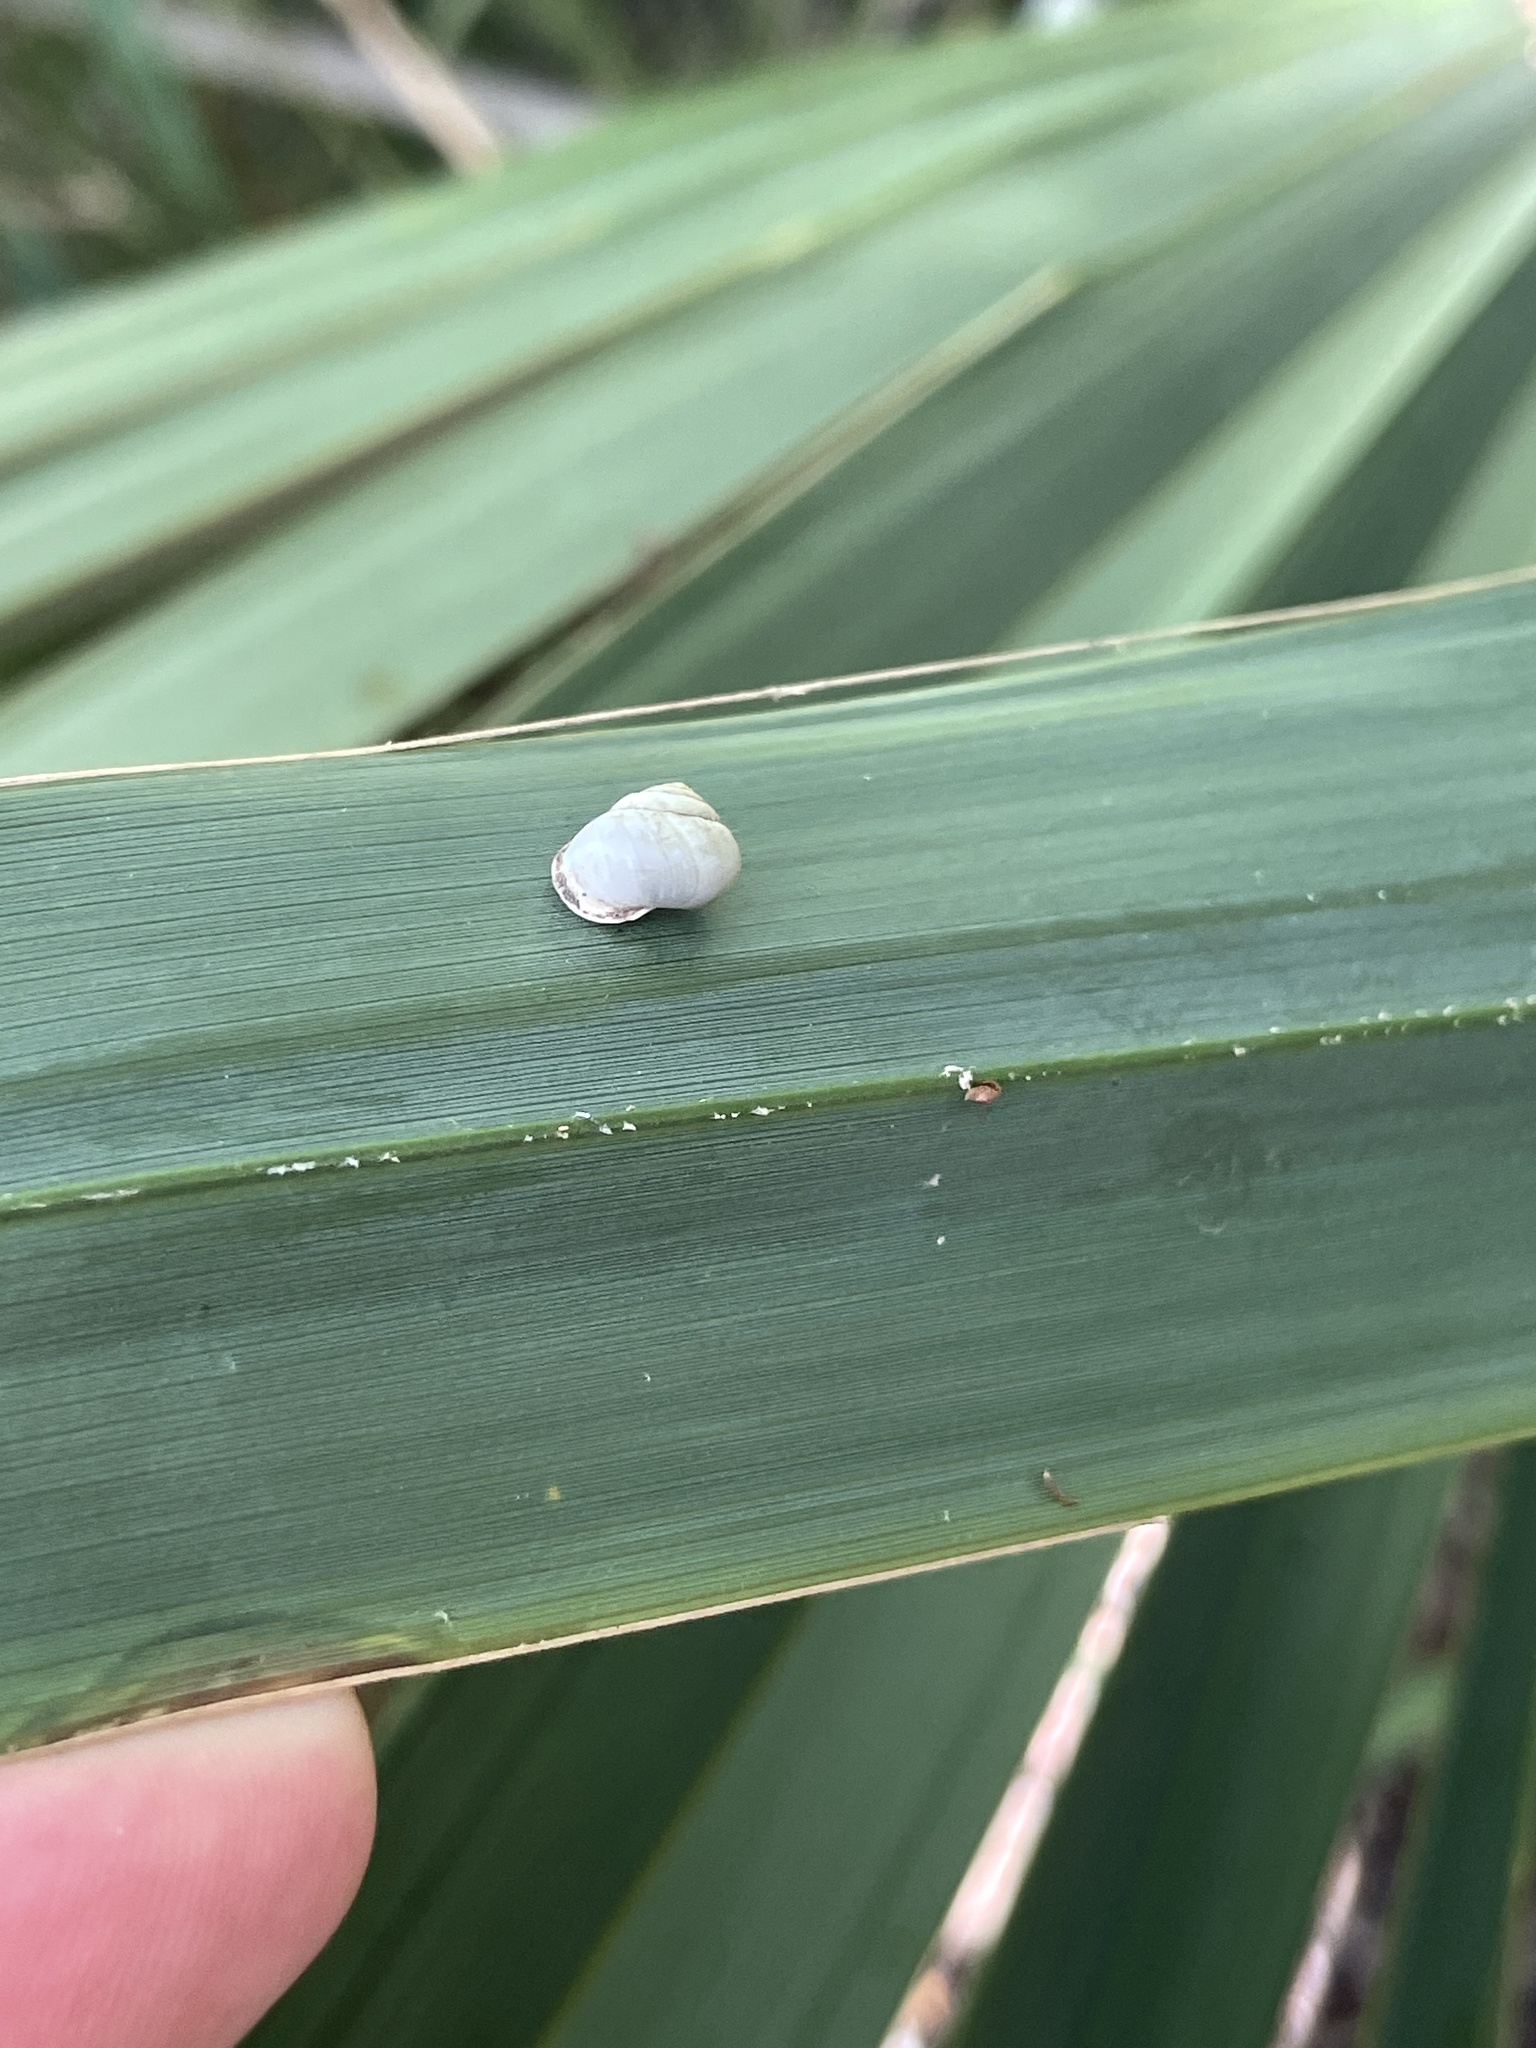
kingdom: Animalia
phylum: Mollusca
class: Gastropoda
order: Cycloneritida
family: Helicinidae
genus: Helicina
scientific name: Helicina orbiculata
